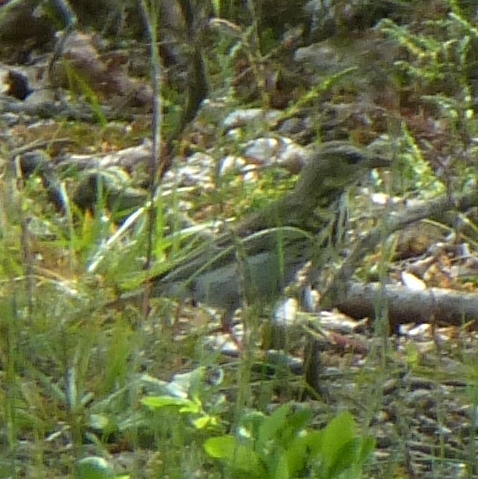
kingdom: Animalia
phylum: Chordata
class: Aves
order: Passeriformes
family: Motacillidae
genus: Anthus
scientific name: Anthus trivialis
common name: Tree pipit
